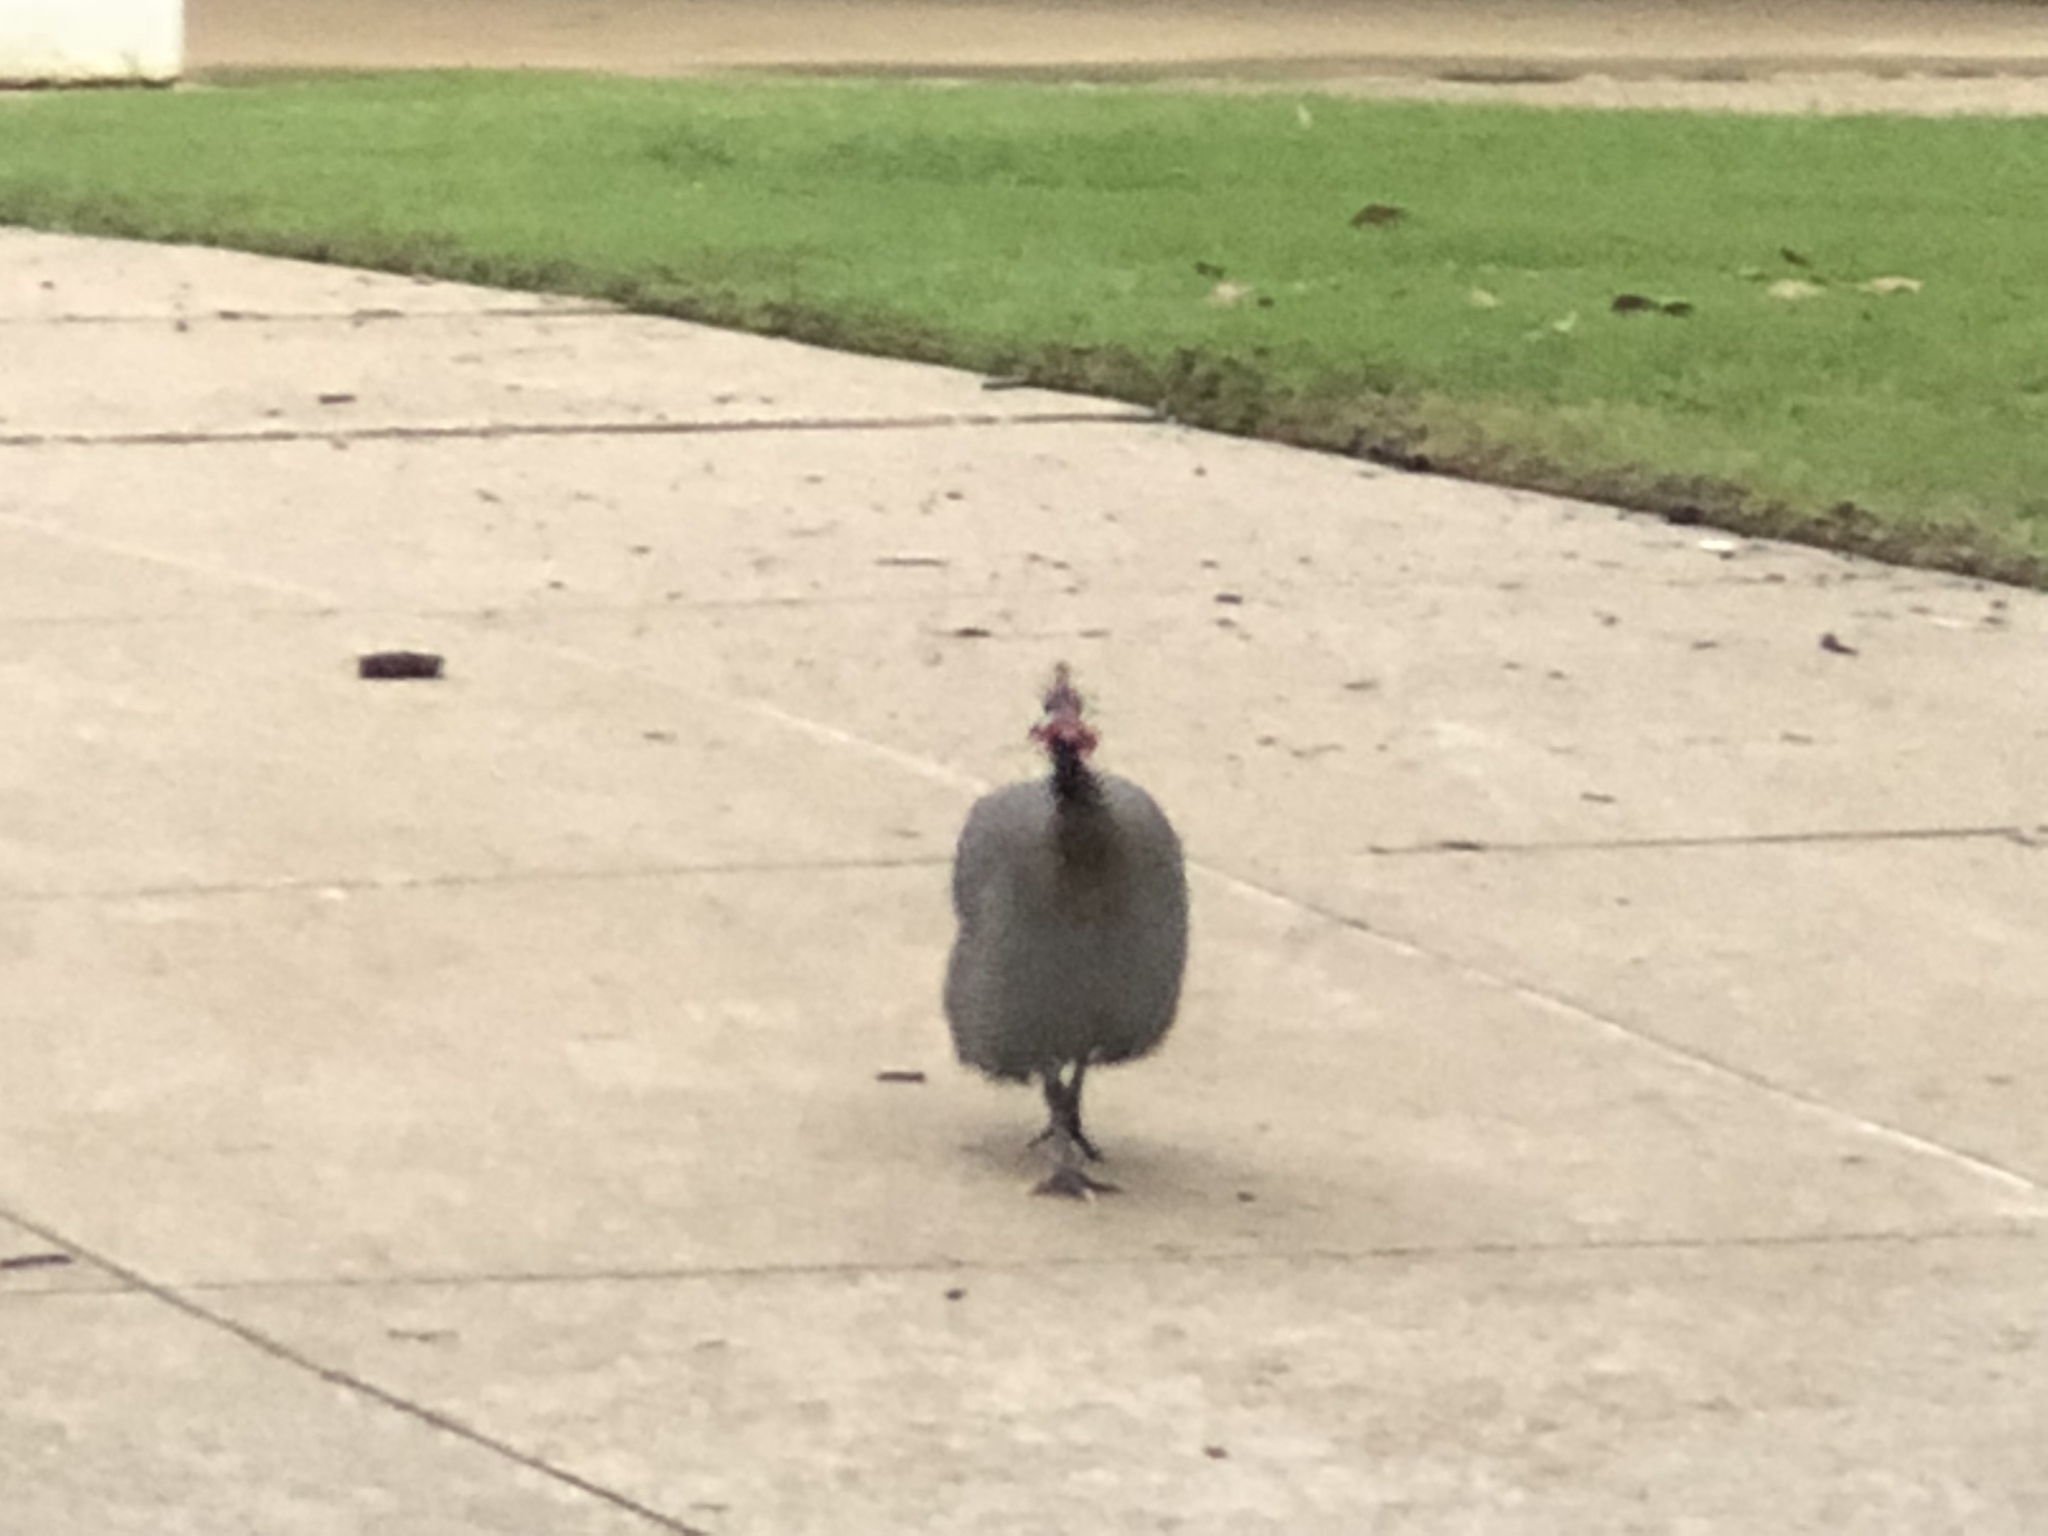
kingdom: Animalia
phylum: Chordata
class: Aves
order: Galliformes
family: Numididae
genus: Numida
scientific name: Numida meleagris
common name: Helmeted guineafowl
